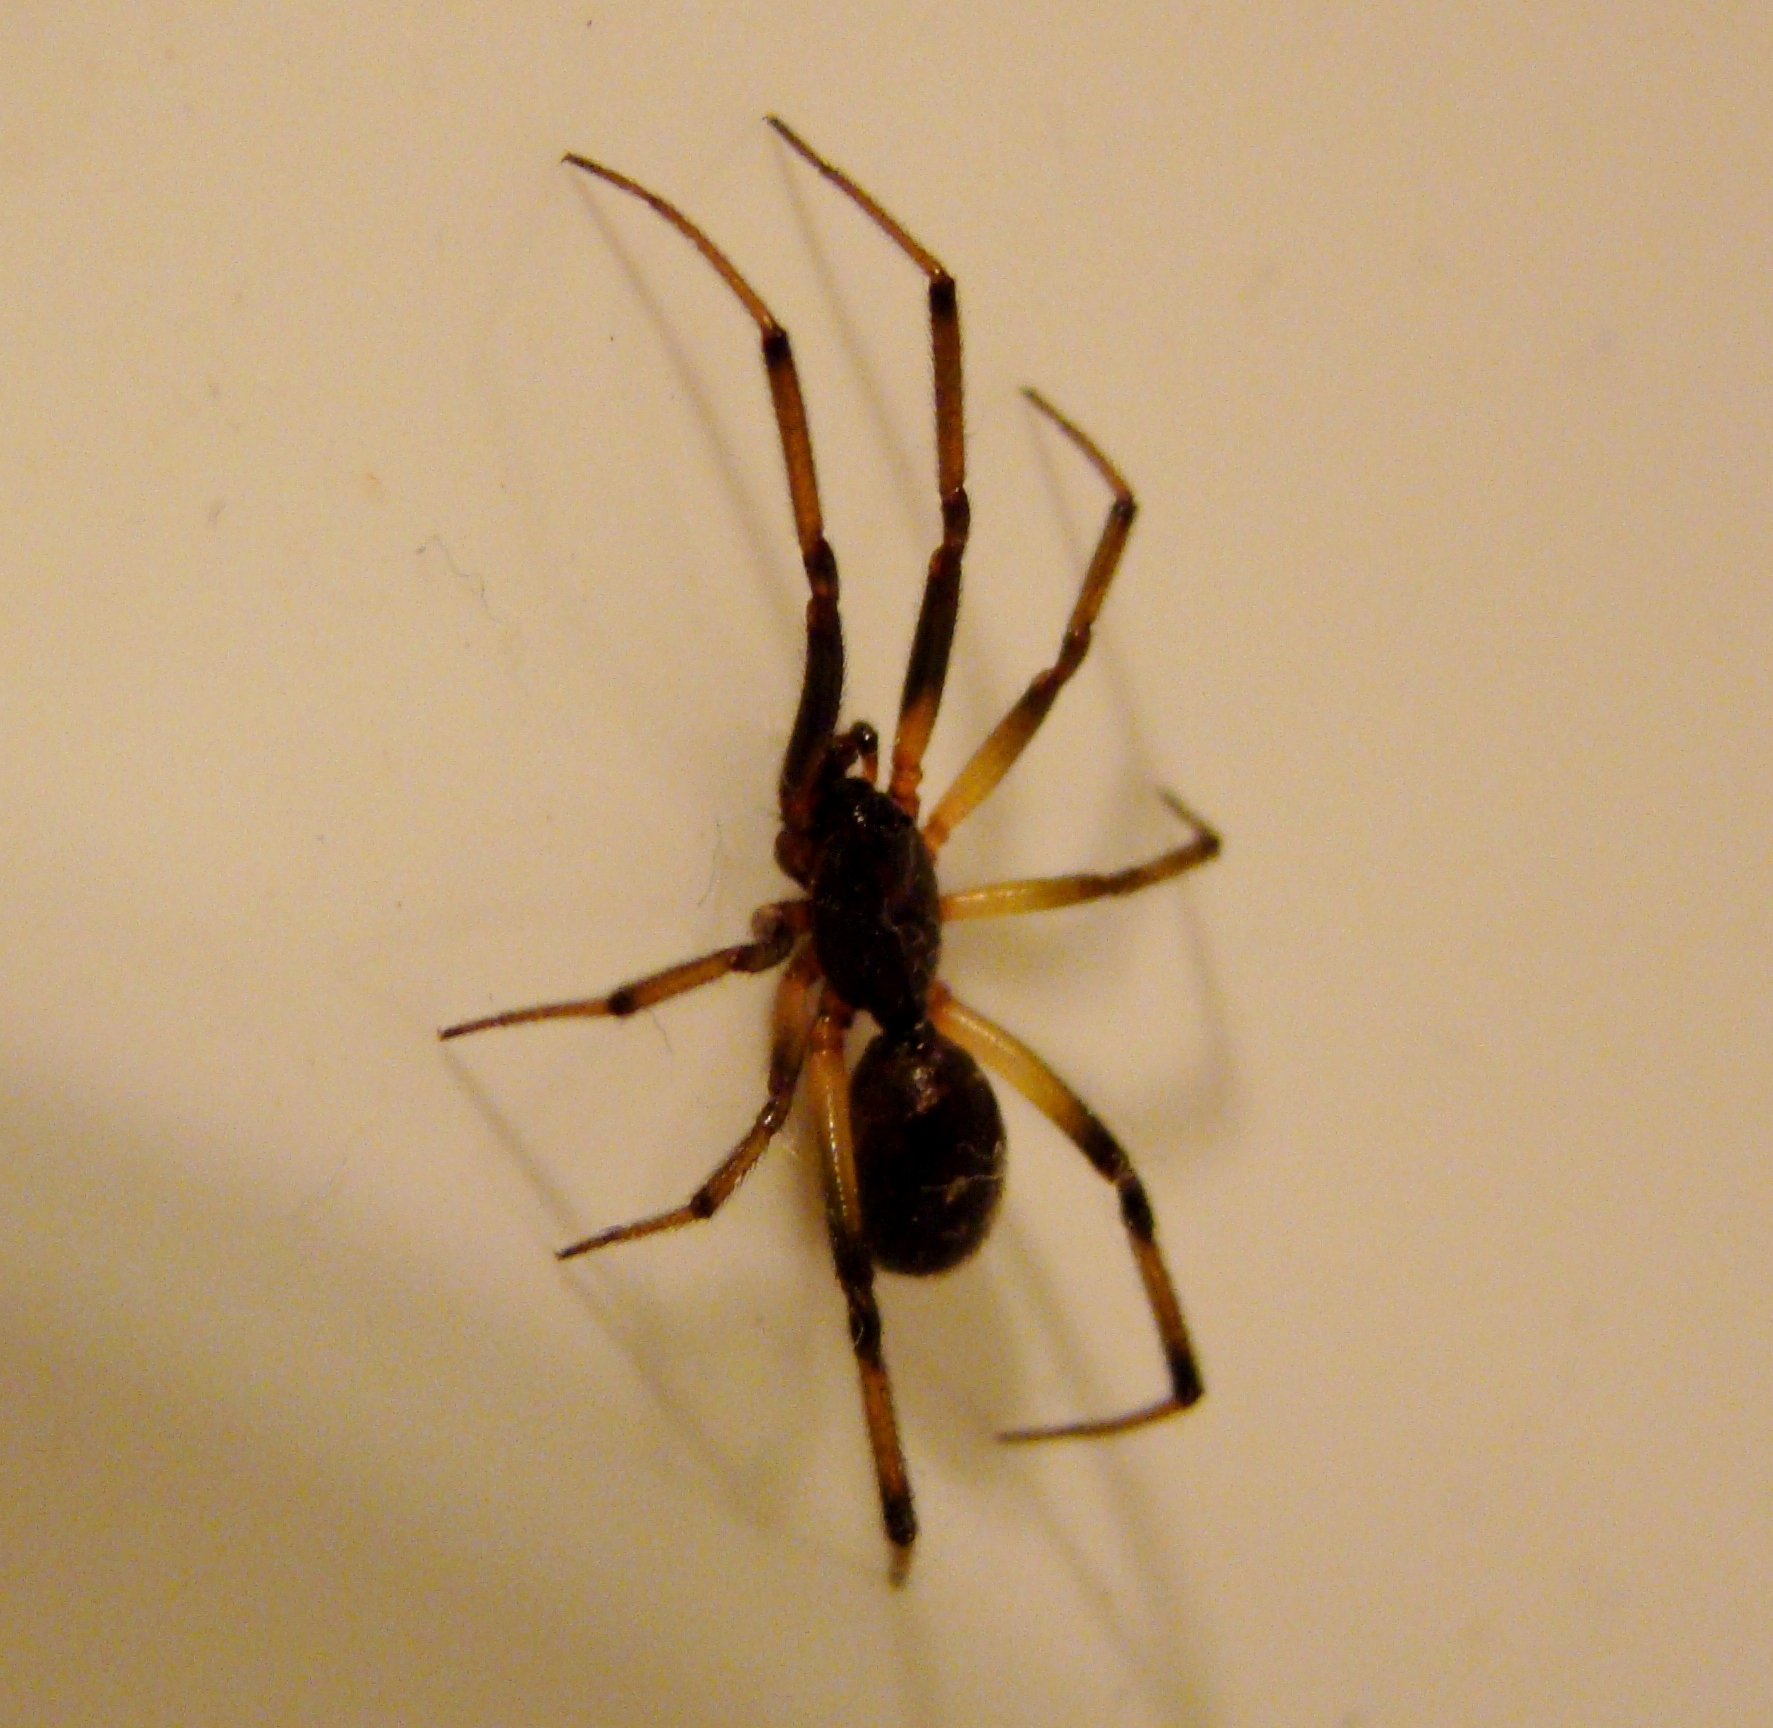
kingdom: Animalia
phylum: Arthropoda
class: Arachnida
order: Araneae
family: Theridiidae
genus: Steatoda
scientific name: Steatoda capensis
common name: Cobweb weaver
